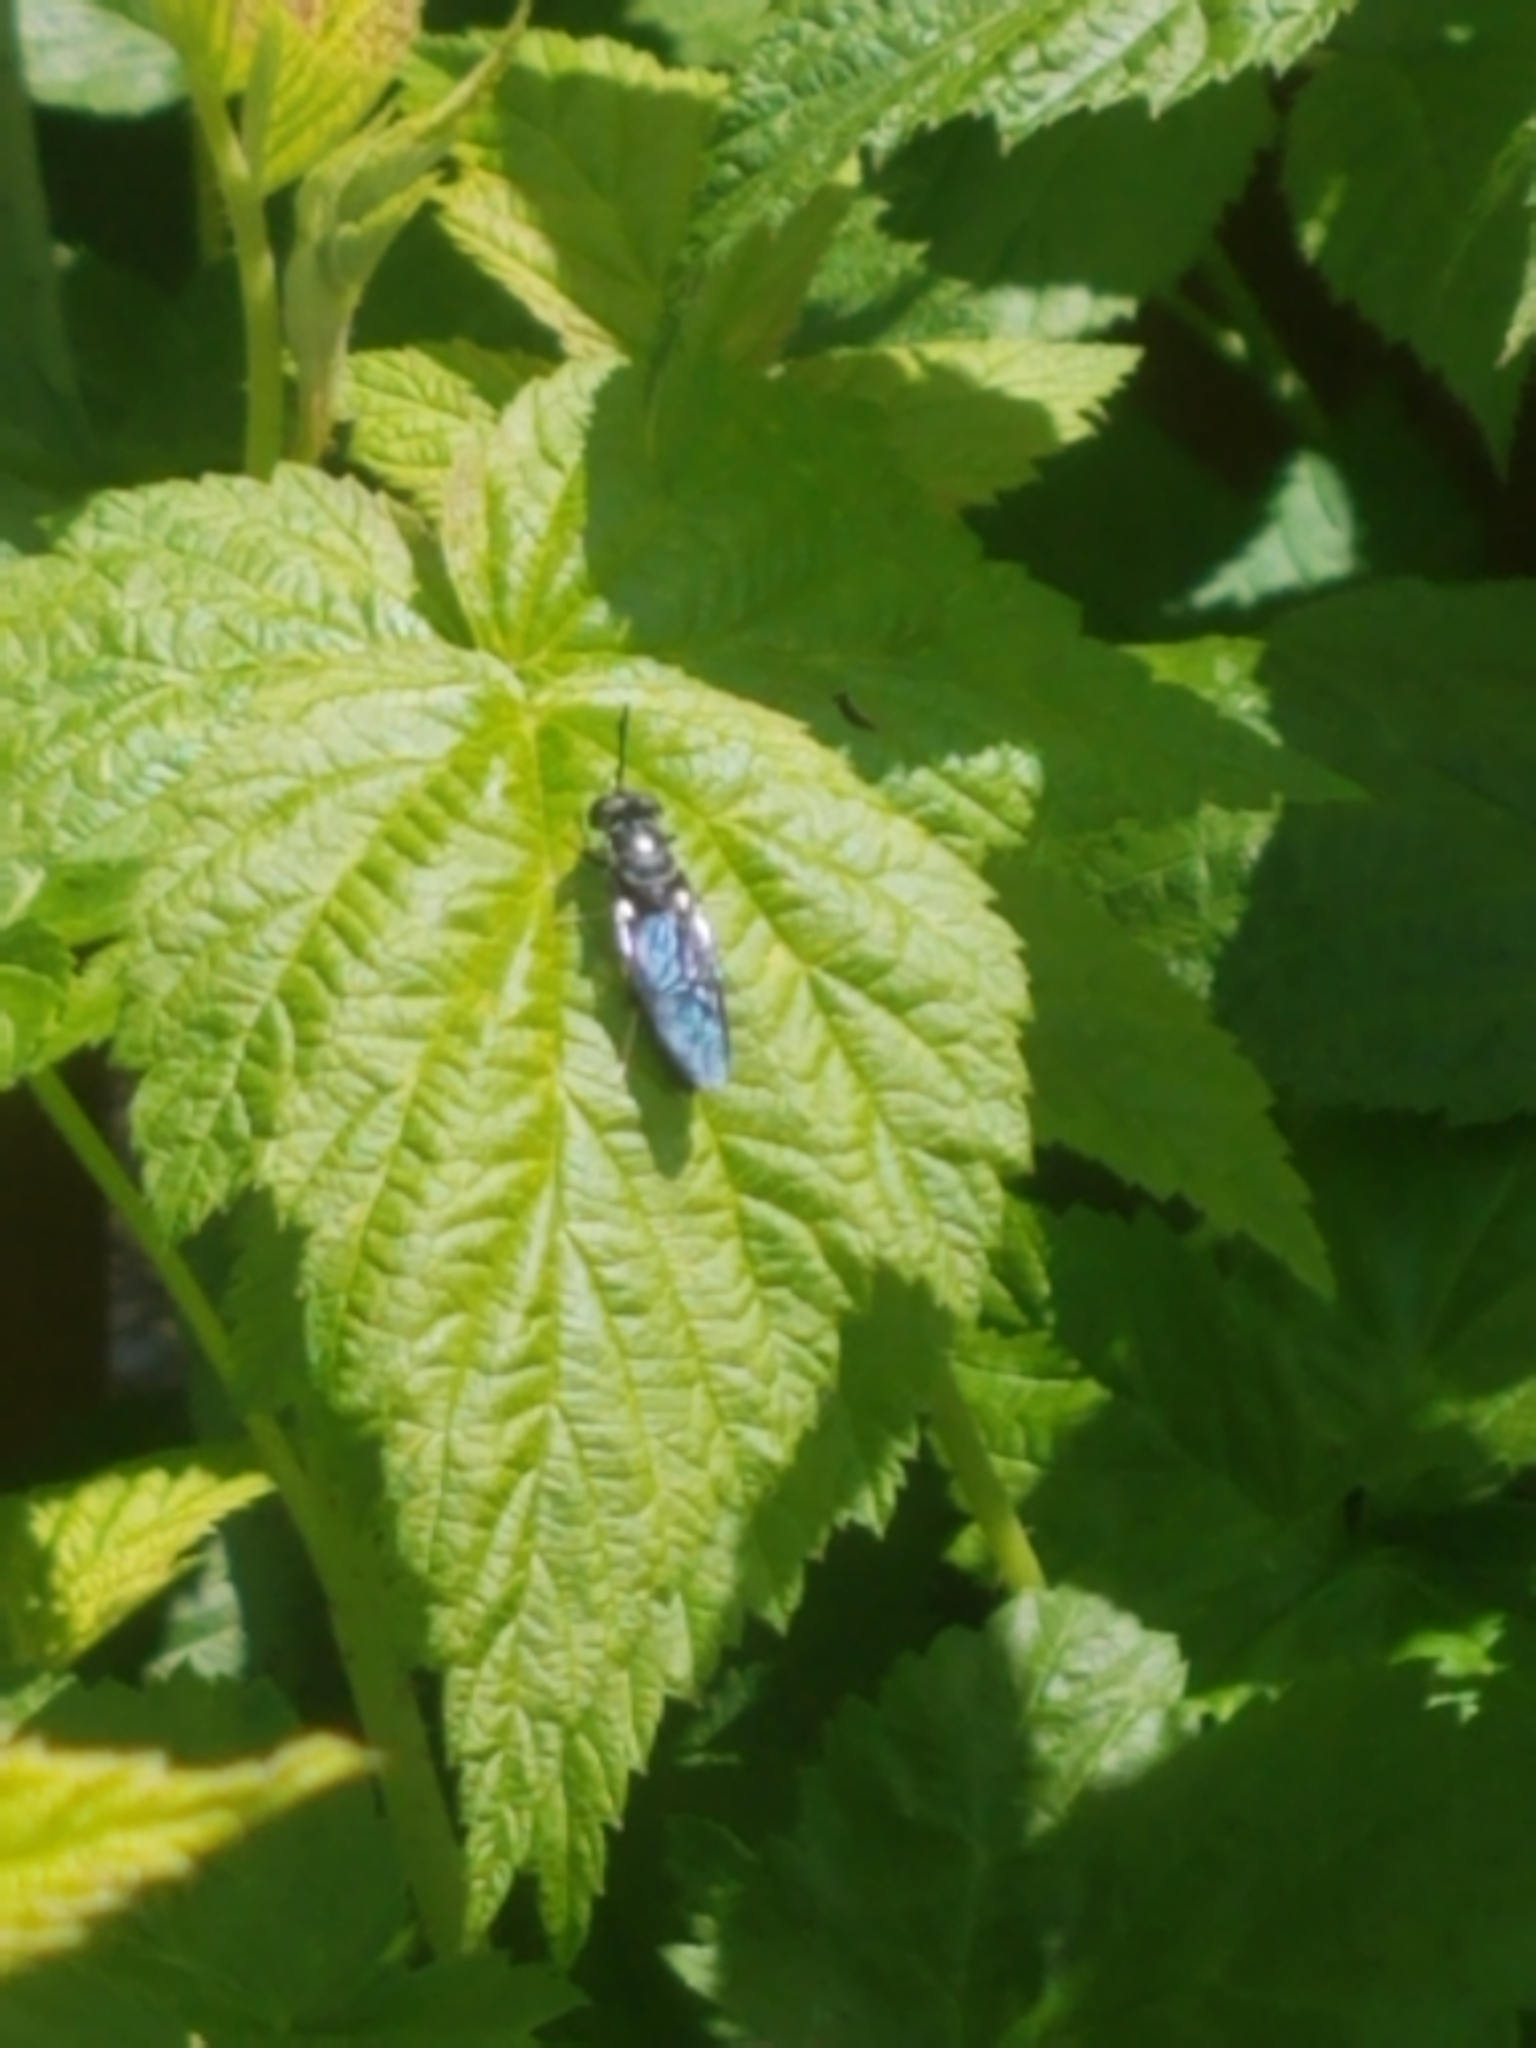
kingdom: Animalia
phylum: Arthropoda
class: Insecta
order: Diptera
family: Stratiomyidae
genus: Hermetia
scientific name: Hermetia illucens
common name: Black soldier fly
